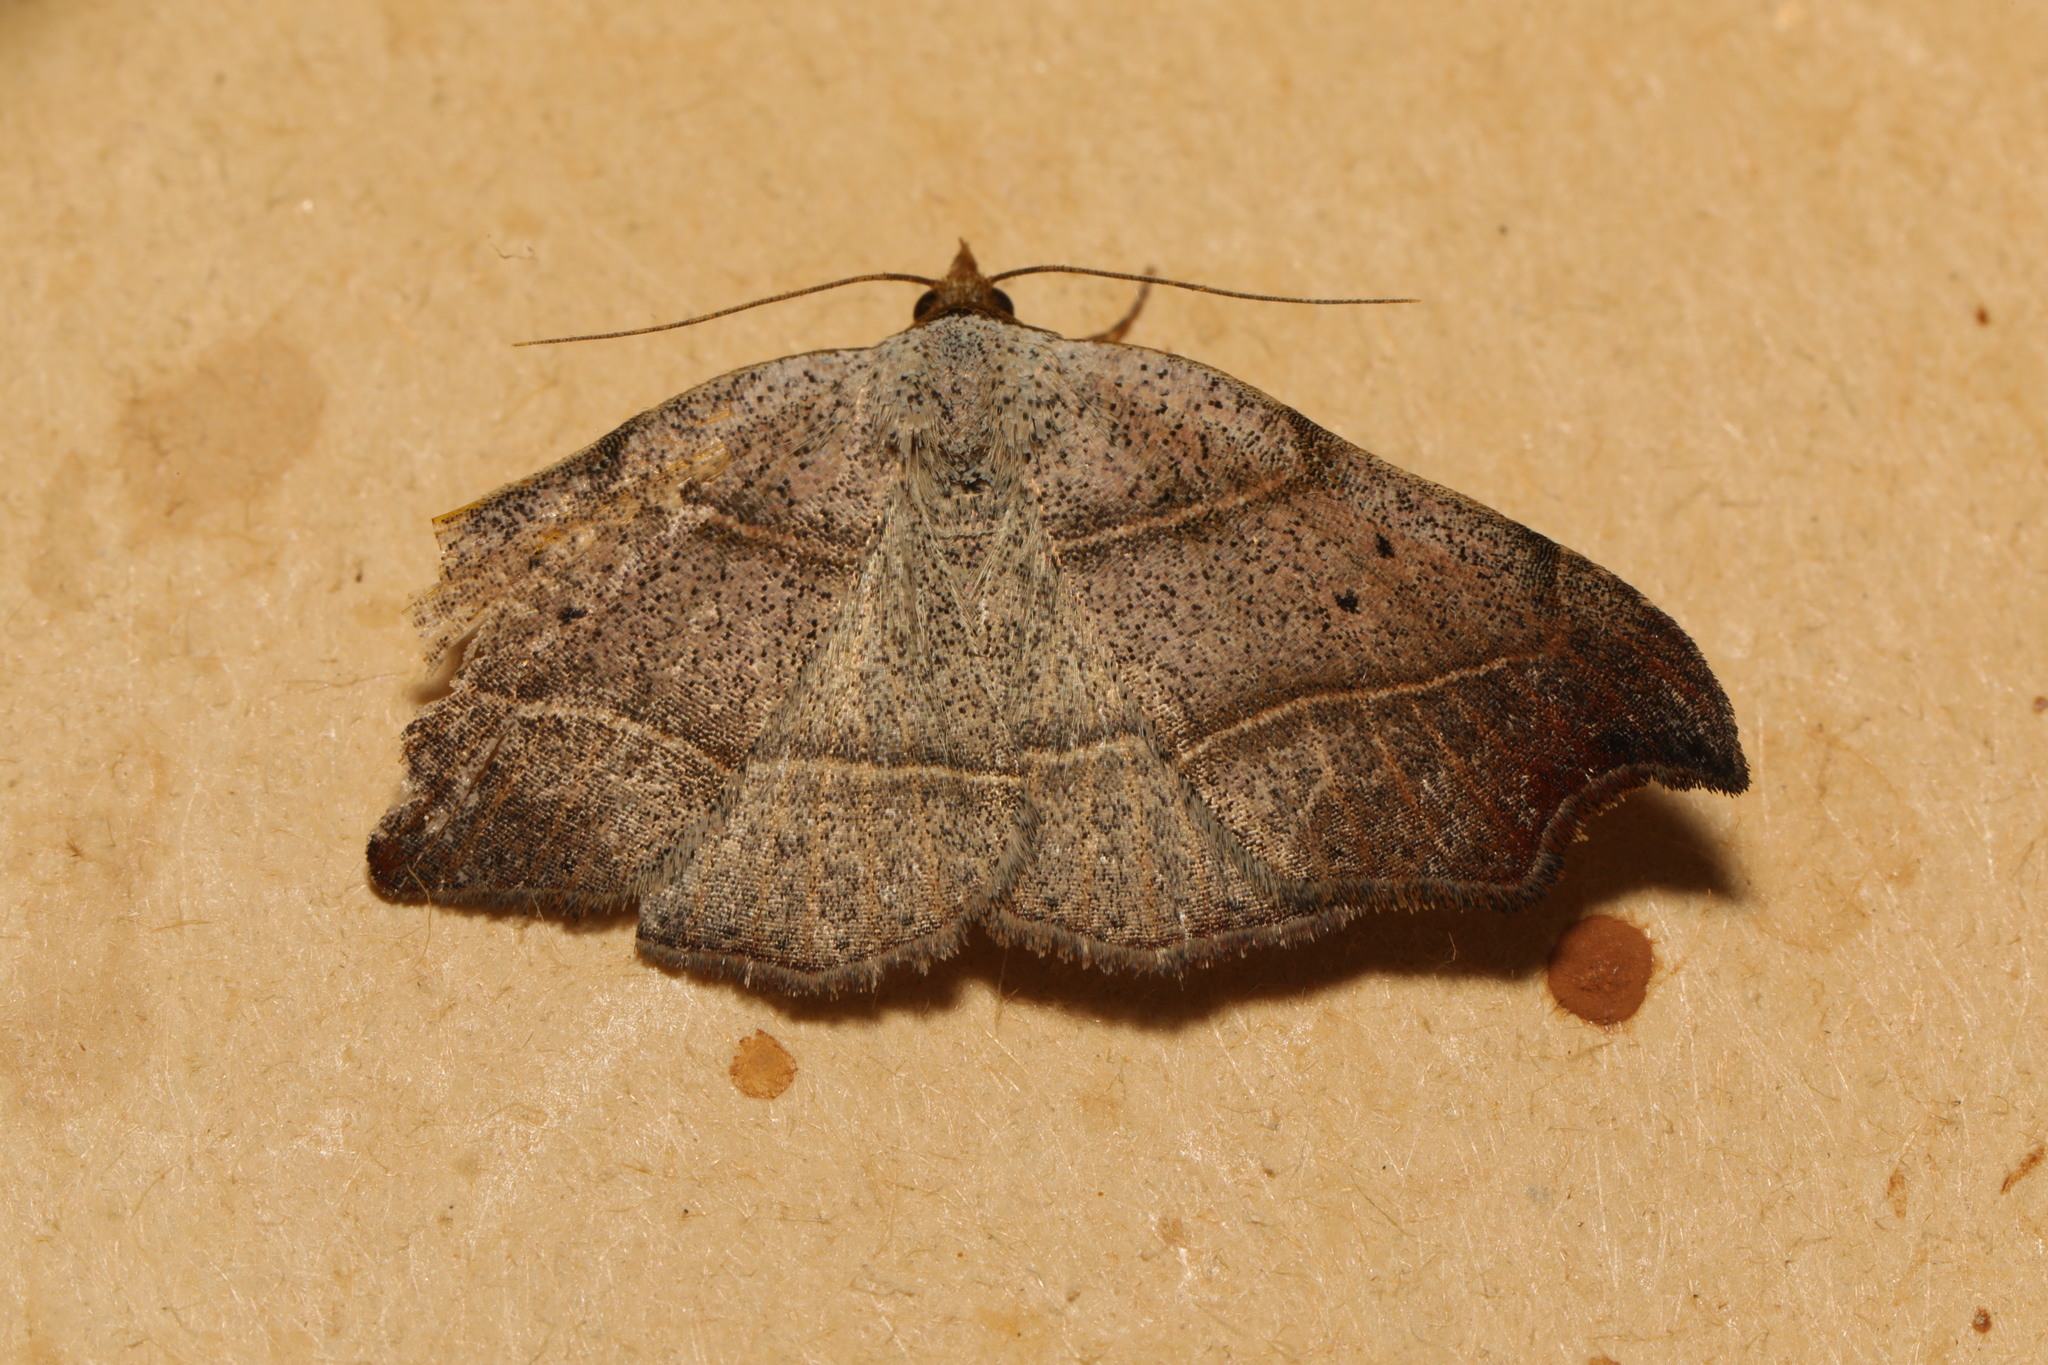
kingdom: Animalia
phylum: Arthropoda
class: Insecta
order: Lepidoptera
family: Erebidae
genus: Laspeyria
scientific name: Laspeyria flexula
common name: Beautiful hook-tip
